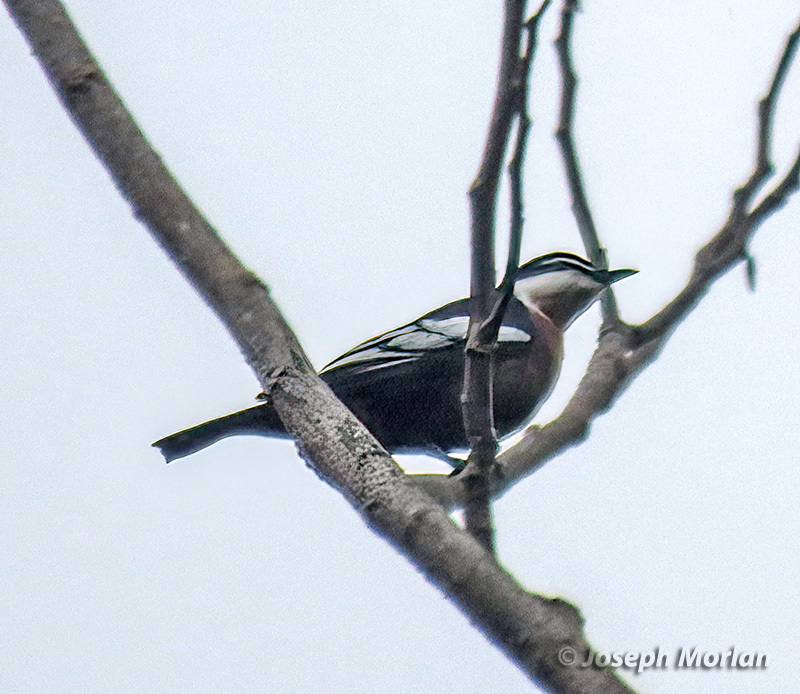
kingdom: Animalia
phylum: Chordata
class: Aves
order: Passeriformes
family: Campephagidae
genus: Lalage
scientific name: Lalage aurea
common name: Rufous-bellied triller
